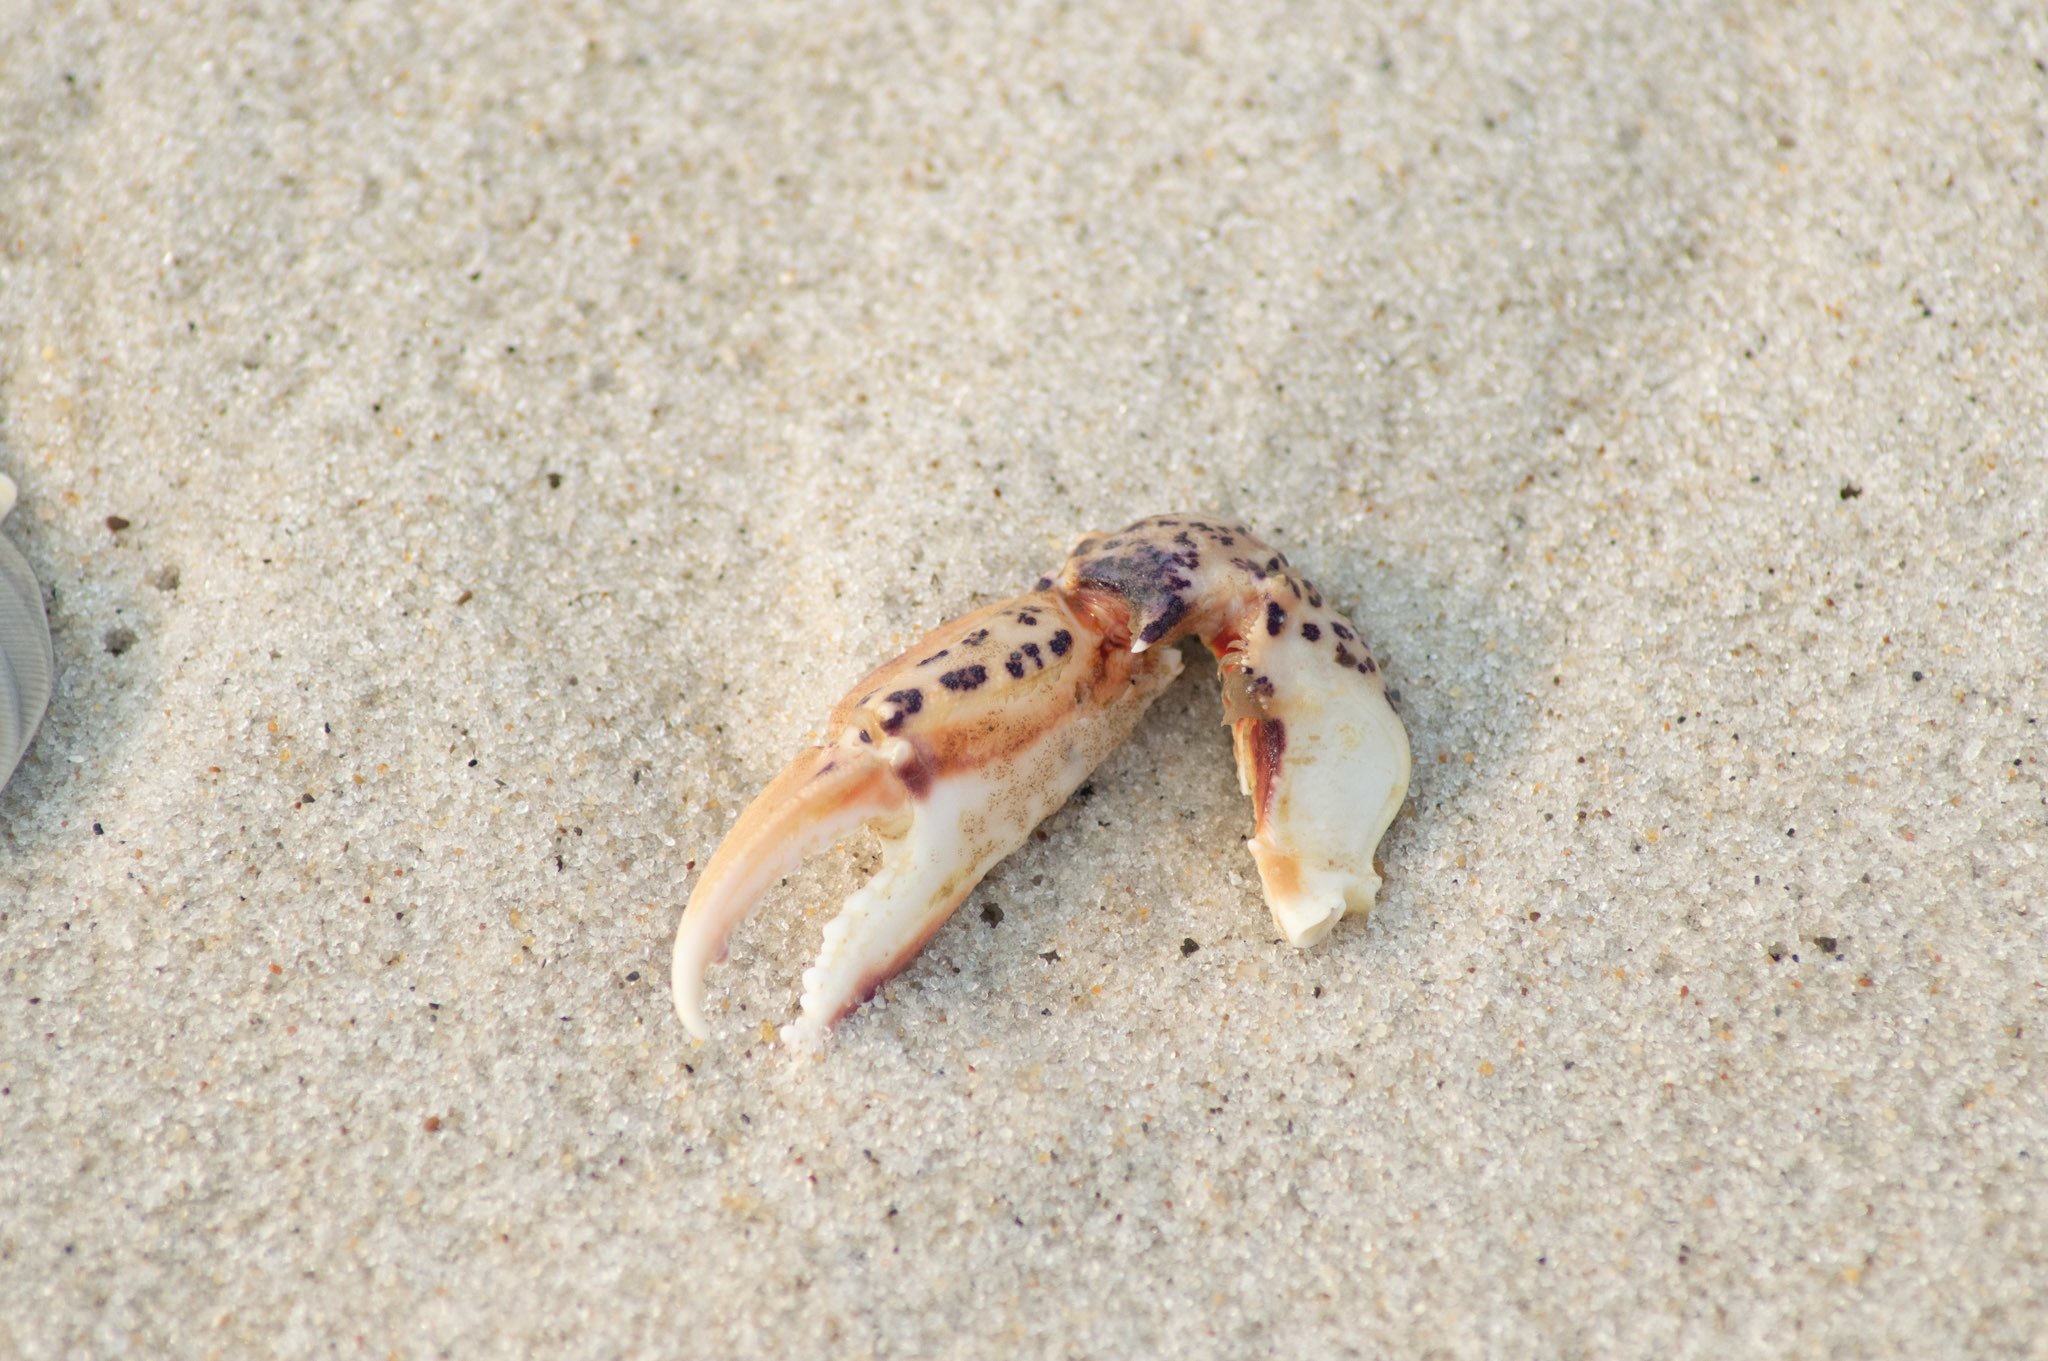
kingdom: Animalia
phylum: Arthropoda
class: Malacostraca
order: Decapoda
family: Ovalipidae
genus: Ovalipes
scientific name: Ovalipes ocellatus
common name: Lady crab
